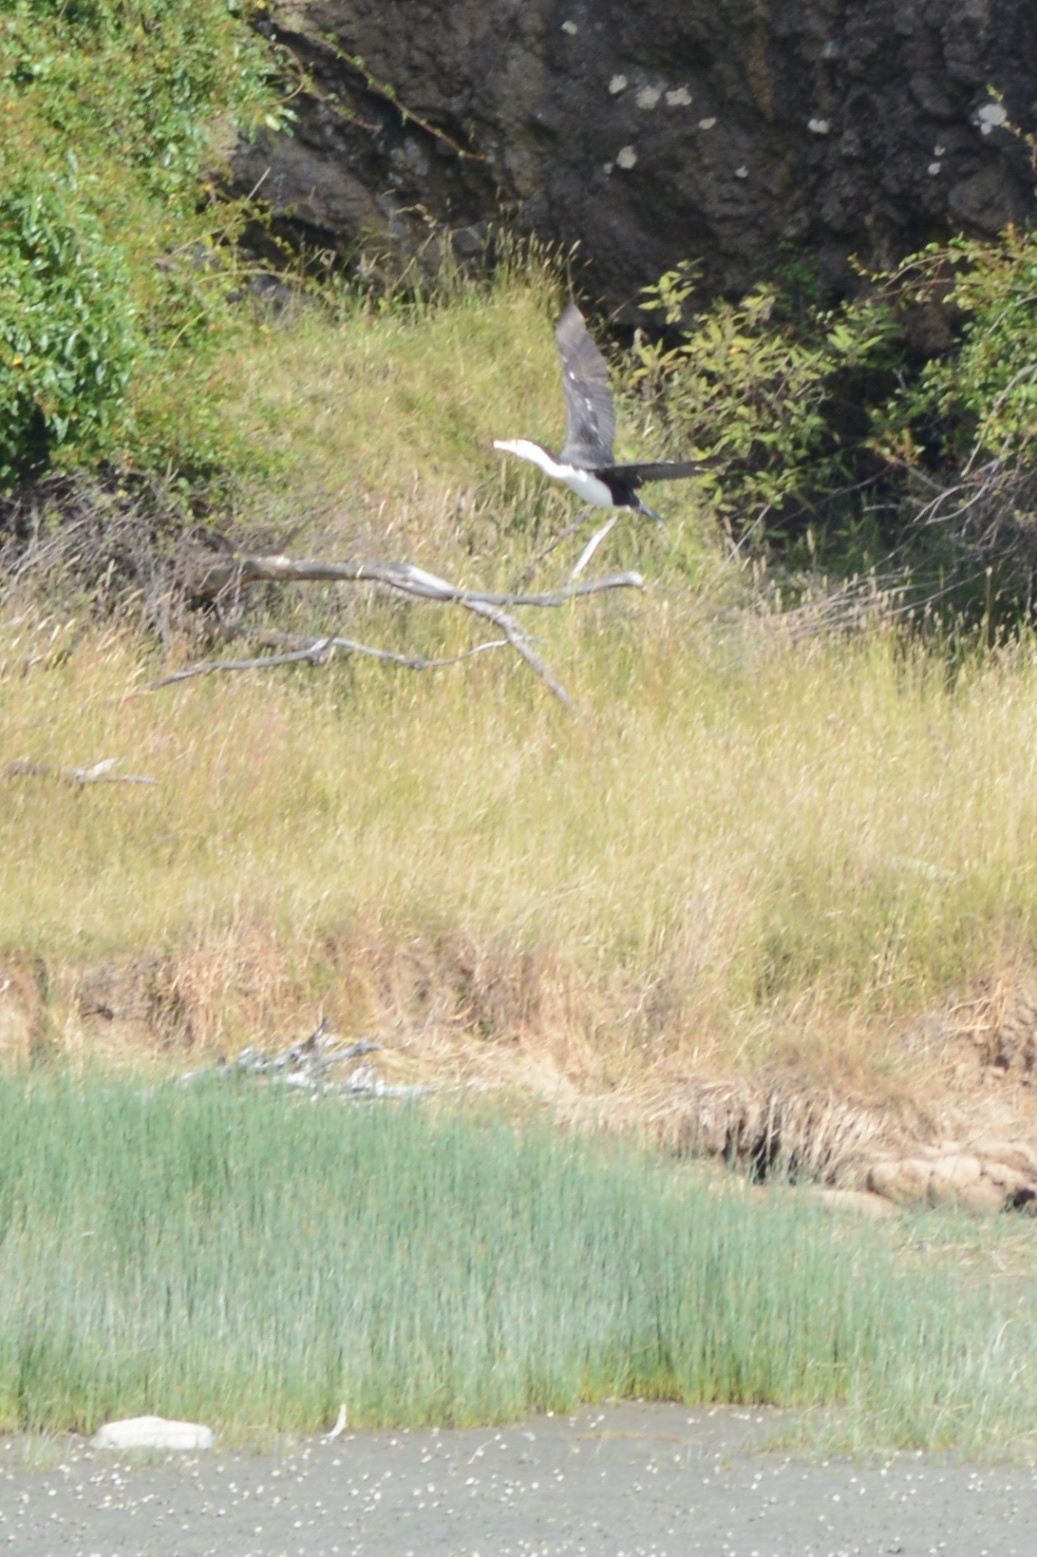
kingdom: Animalia
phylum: Chordata
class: Aves
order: Suliformes
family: Phalacrocoracidae
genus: Phalacrocorax
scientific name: Phalacrocorax varius
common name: Pied cormorant
